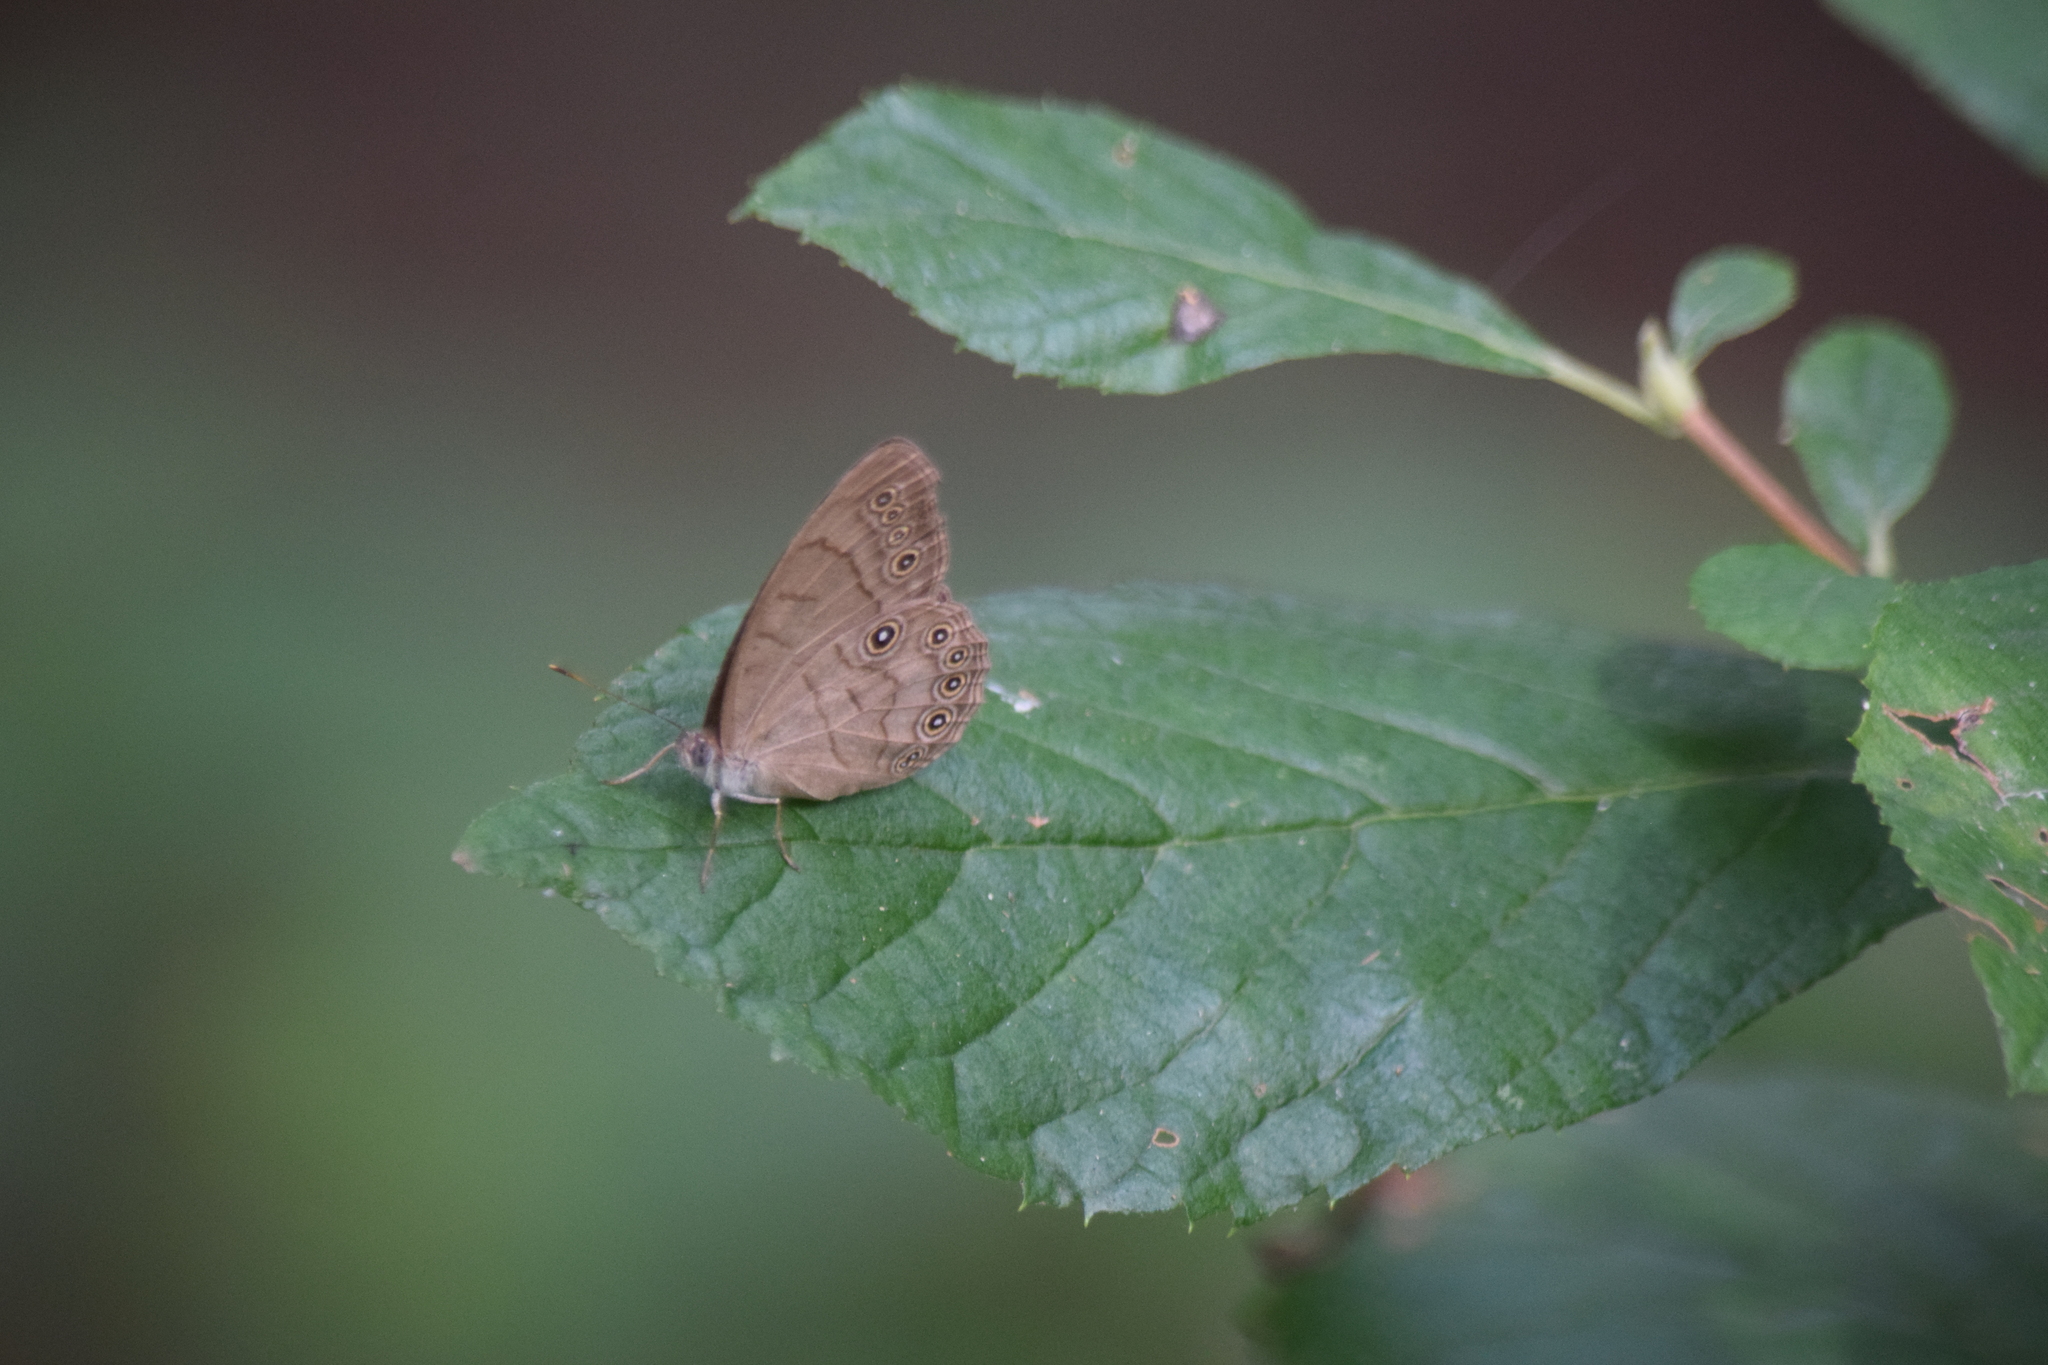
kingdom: Animalia
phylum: Arthropoda
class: Insecta
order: Lepidoptera
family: Nymphalidae
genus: Lethe
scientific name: Lethe eurydice
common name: Eyed brown
